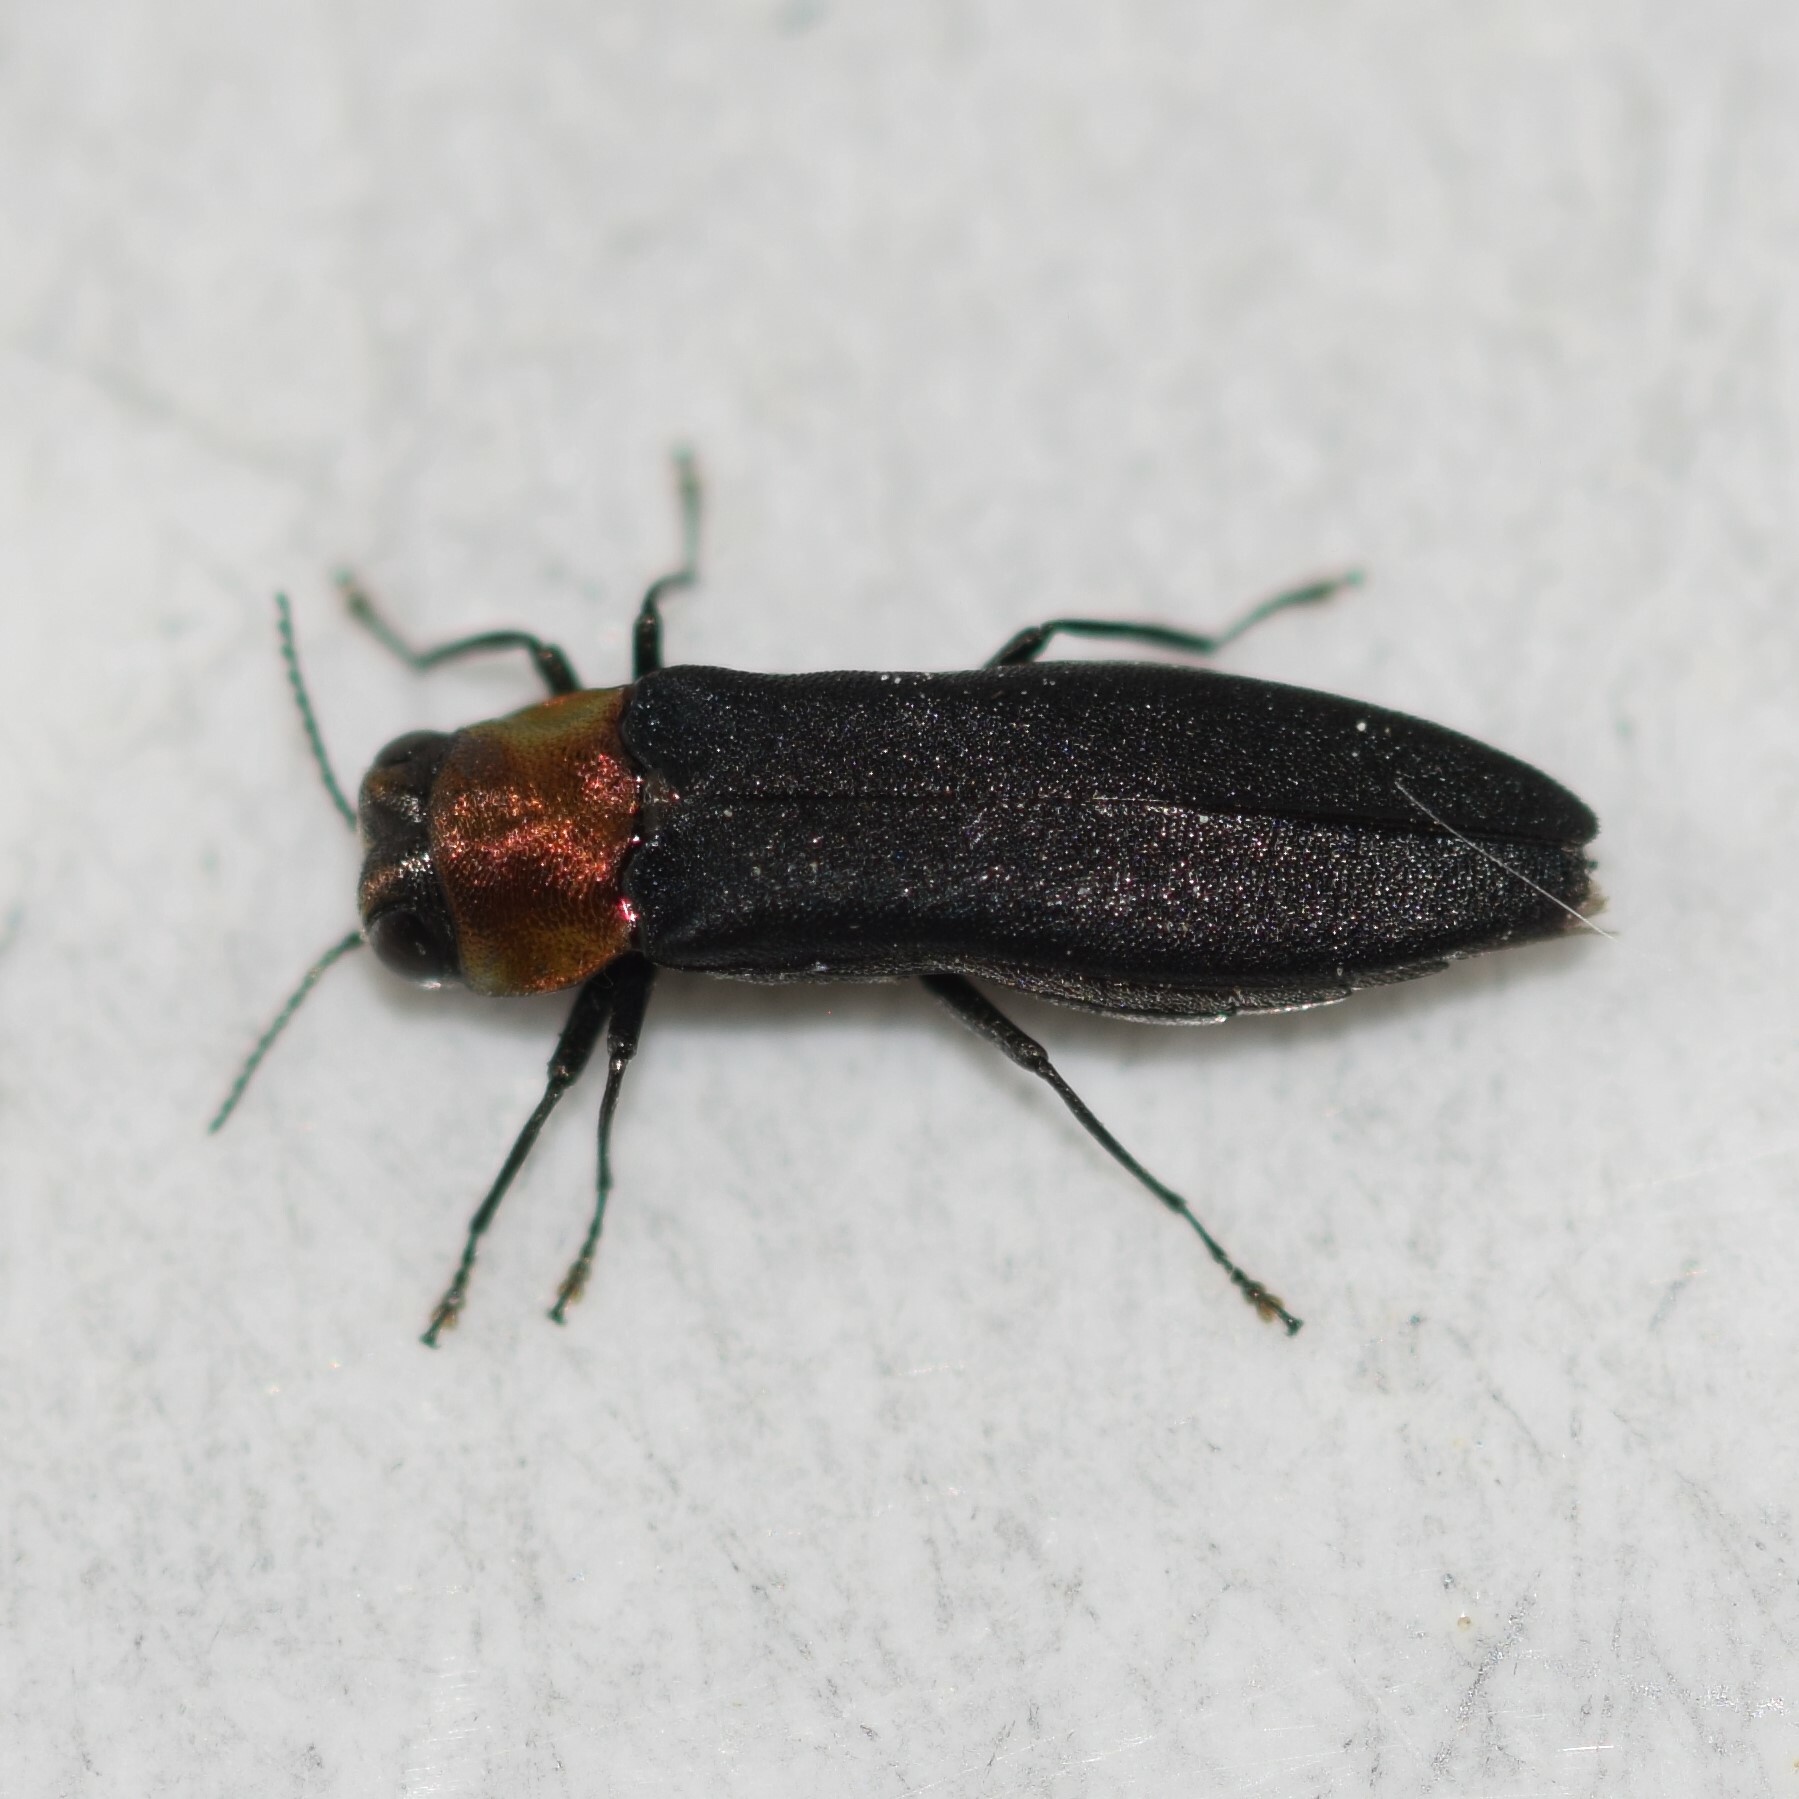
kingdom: Animalia
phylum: Arthropoda
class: Insecta
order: Coleoptera
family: Buprestidae
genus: Agrilus
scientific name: Agrilus ruficollis
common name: Red-necked cane borer beetle
